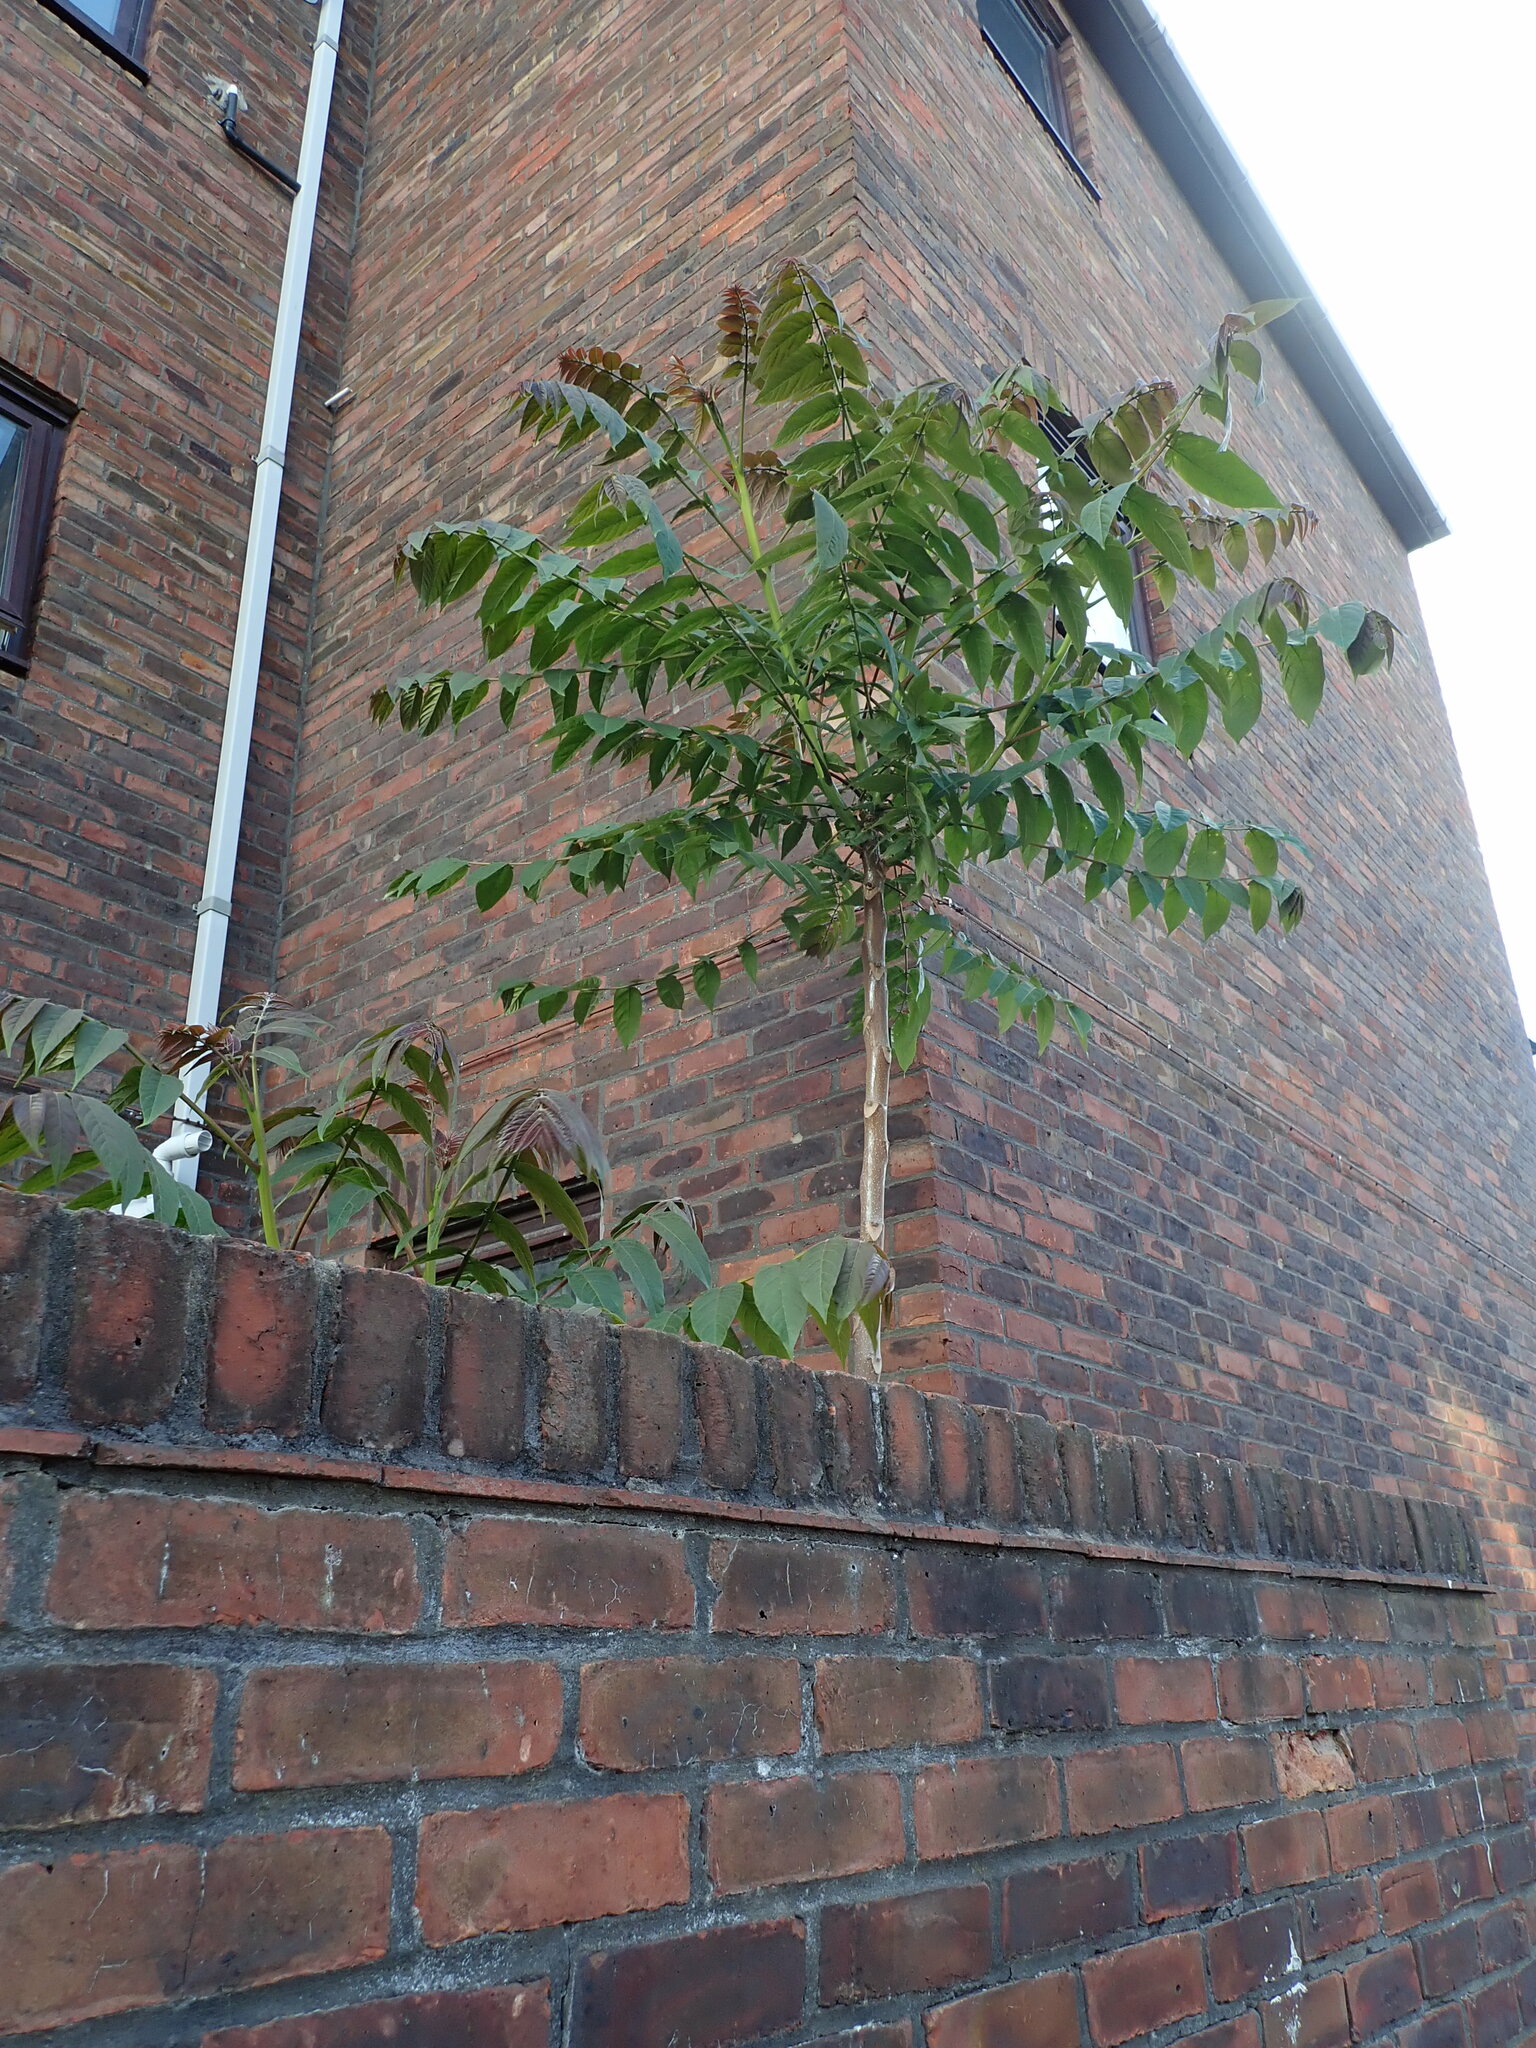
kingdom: Plantae
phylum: Tracheophyta
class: Magnoliopsida
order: Sapindales
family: Simaroubaceae
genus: Ailanthus
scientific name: Ailanthus altissima
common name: Tree-of-heaven
